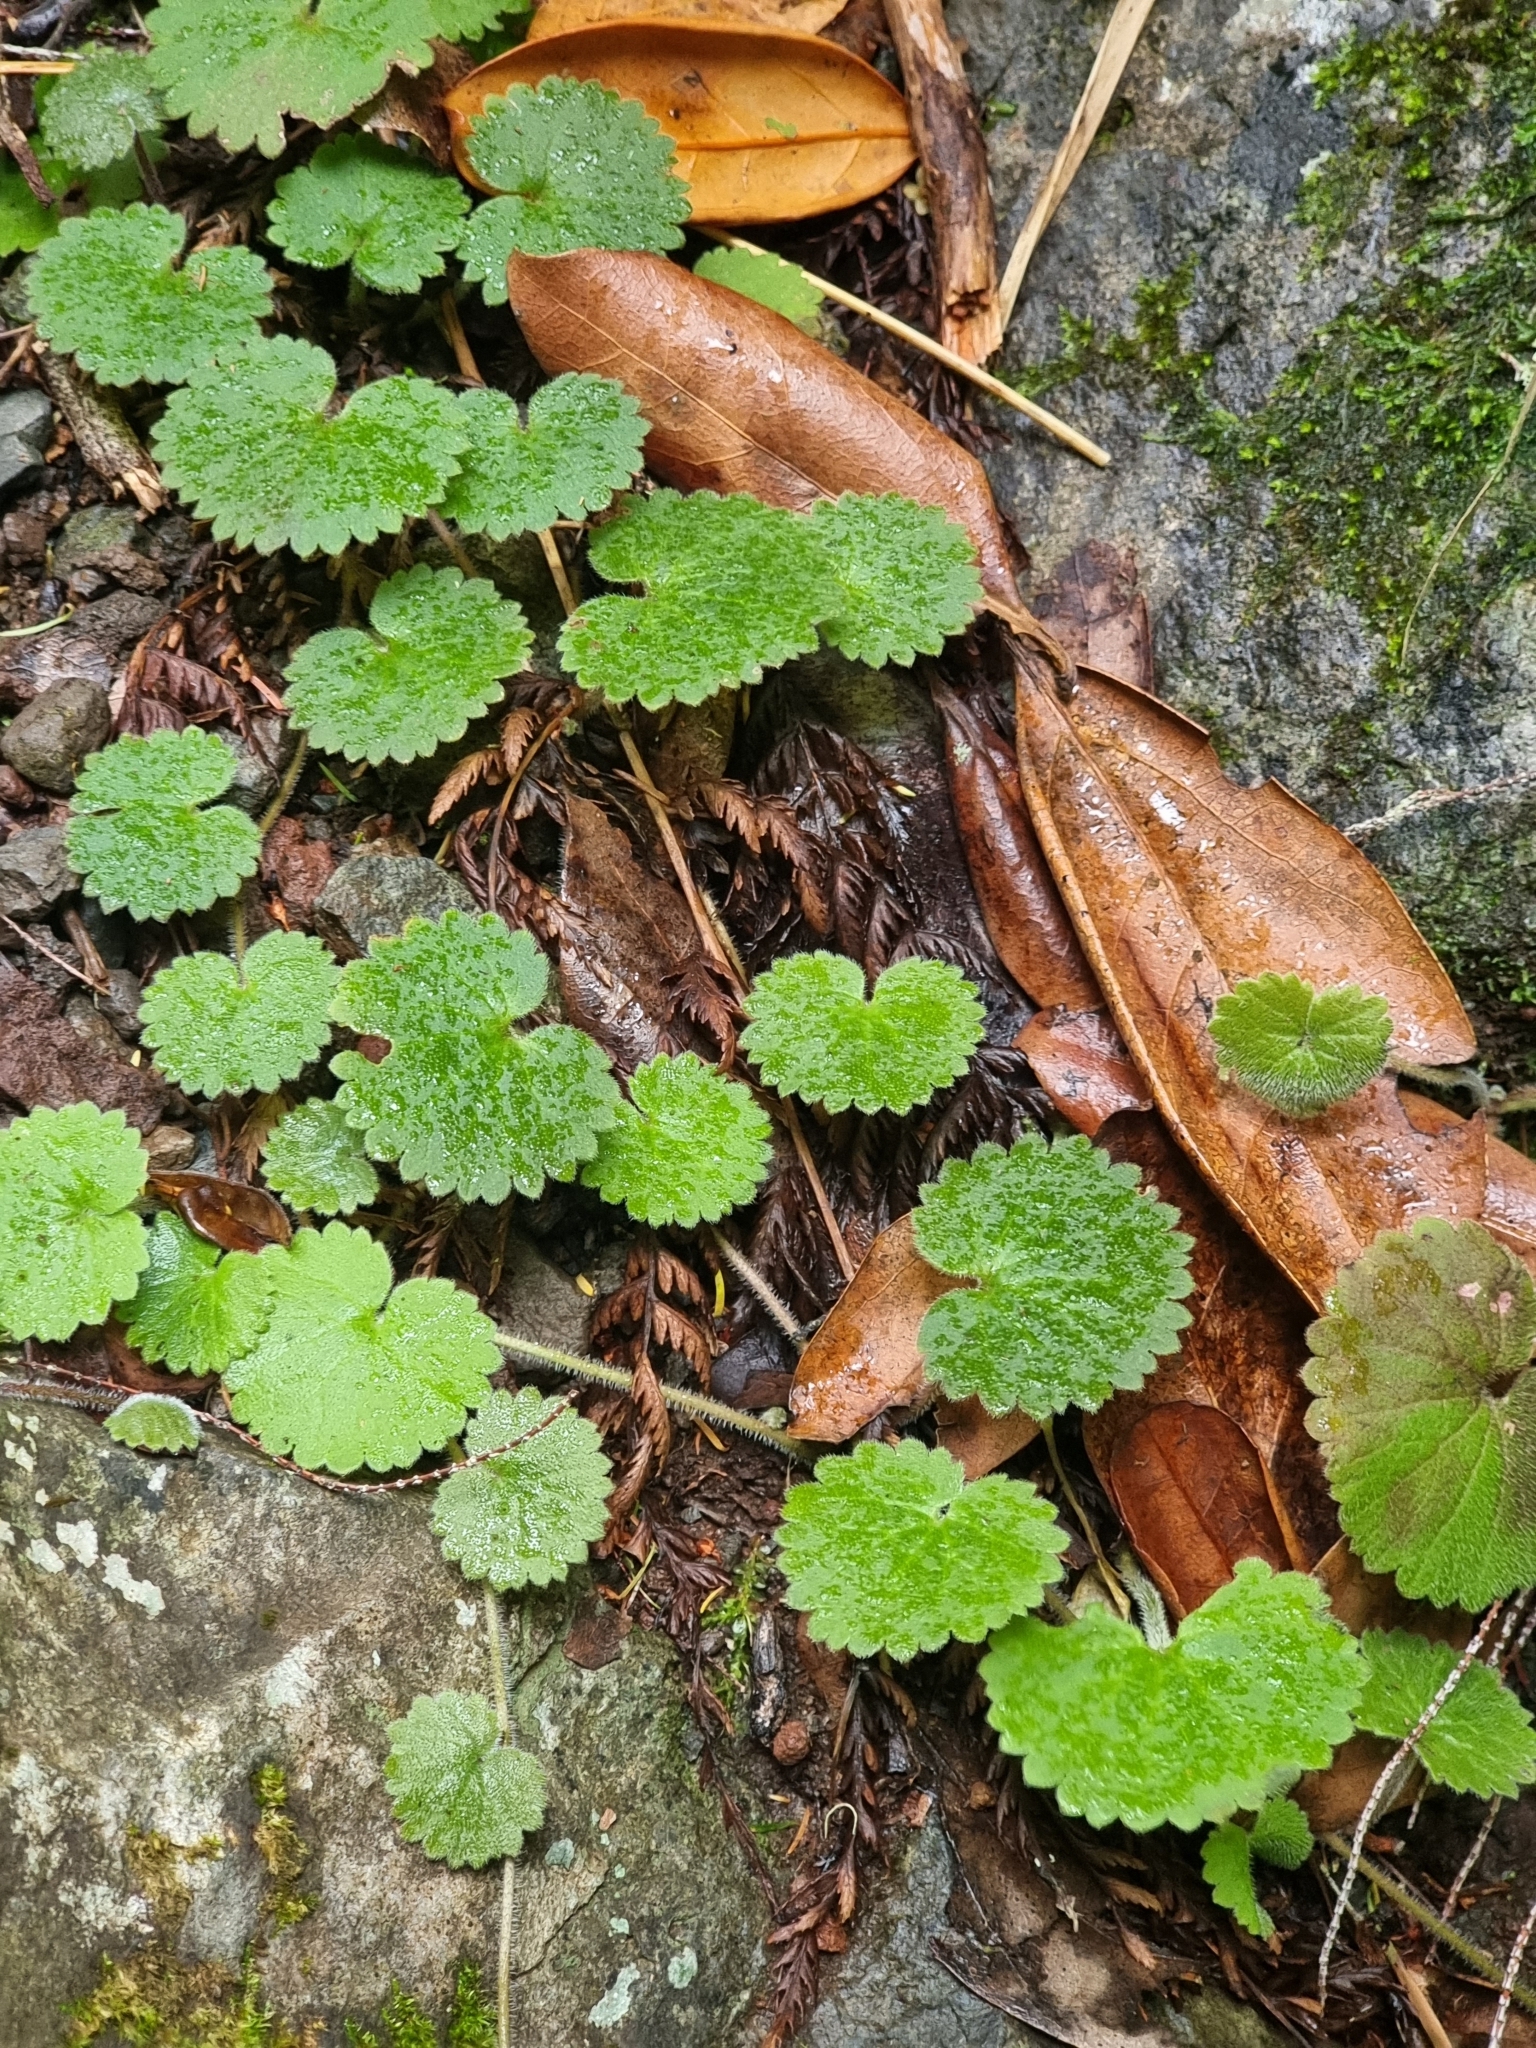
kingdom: Plantae
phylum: Tracheophyta
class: Magnoliopsida
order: Lamiales
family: Plantaginaceae
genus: Sibthorpia
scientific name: Sibthorpia peregrina
